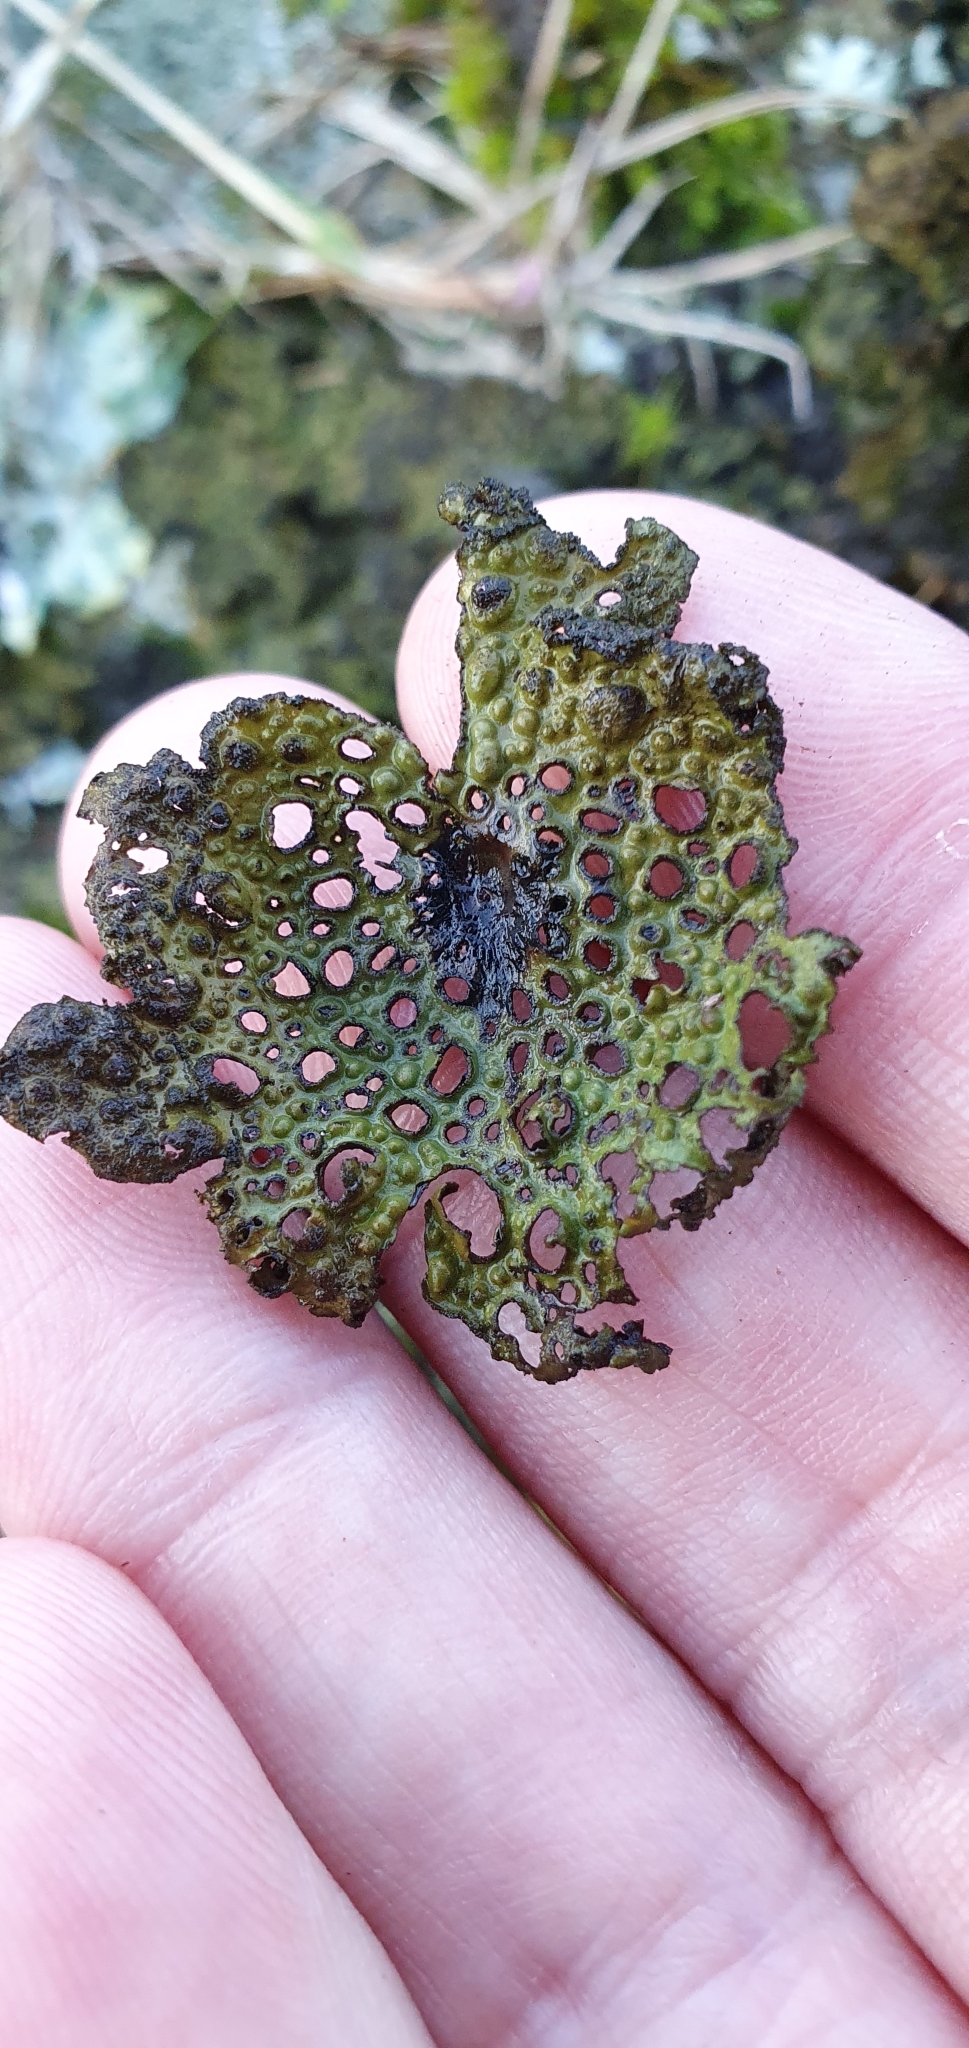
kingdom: Fungi
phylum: Ascomycota
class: Lecanoromycetes
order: Umbilicariales
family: Umbilicariaceae
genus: Lasallia
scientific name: Lasallia pustulata
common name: Blistered toadskin lichen
